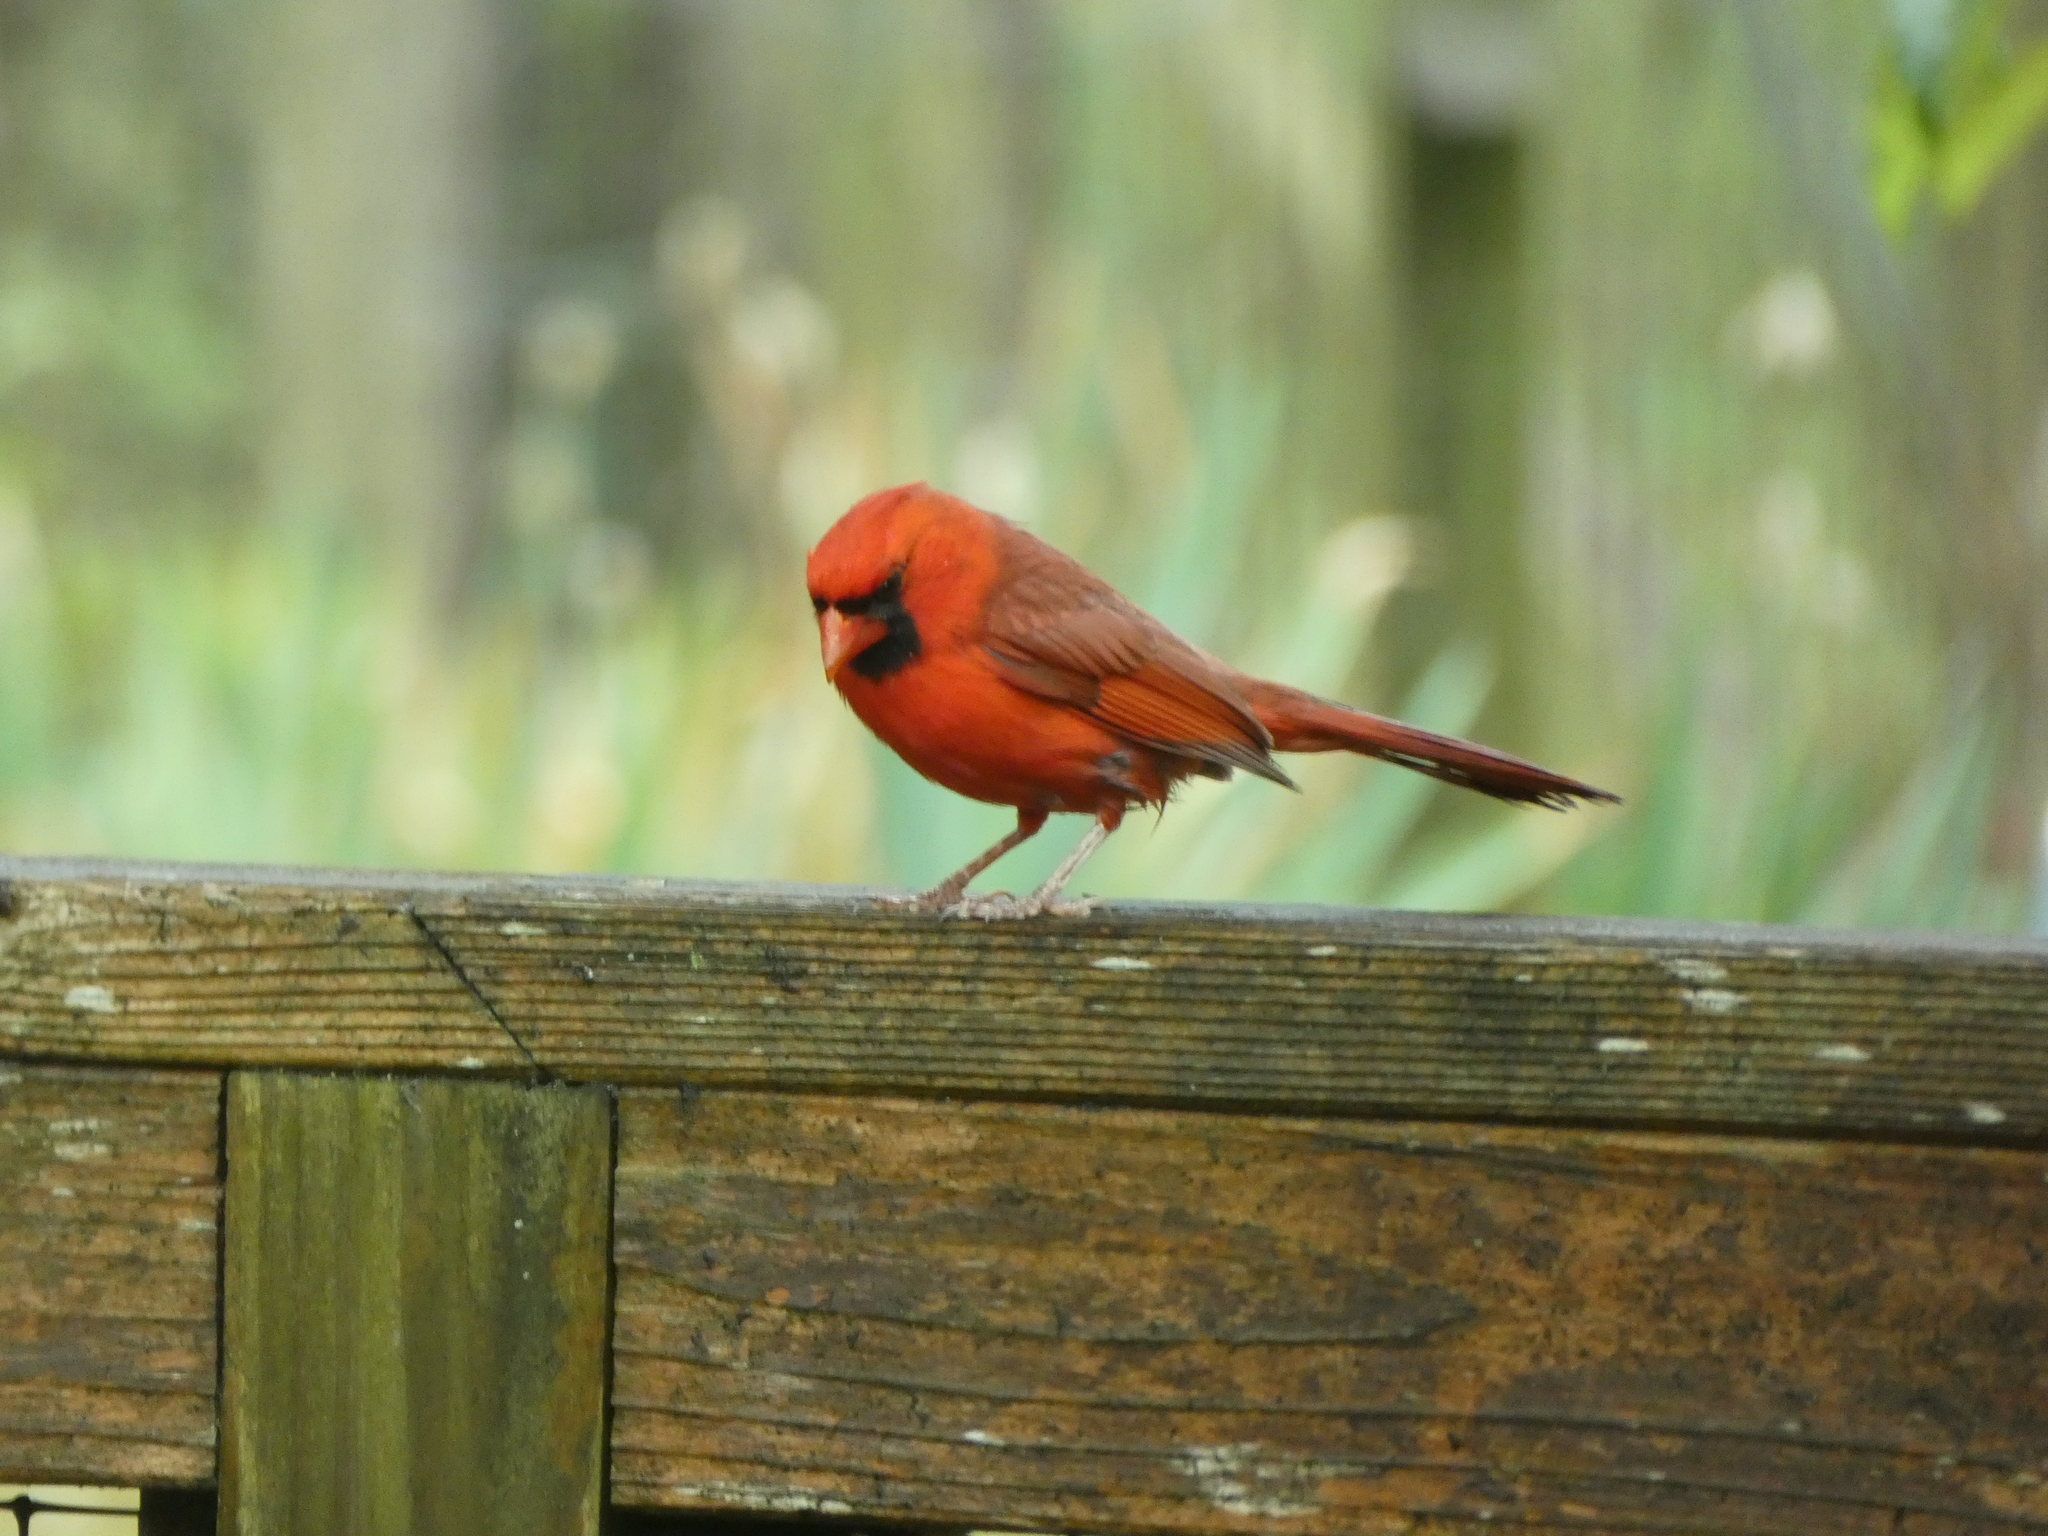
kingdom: Animalia
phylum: Chordata
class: Aves
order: Passeriformes
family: Cardinalidae
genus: Cardinalis
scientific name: Cardinalis cardinalis
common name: Northern cardinal
